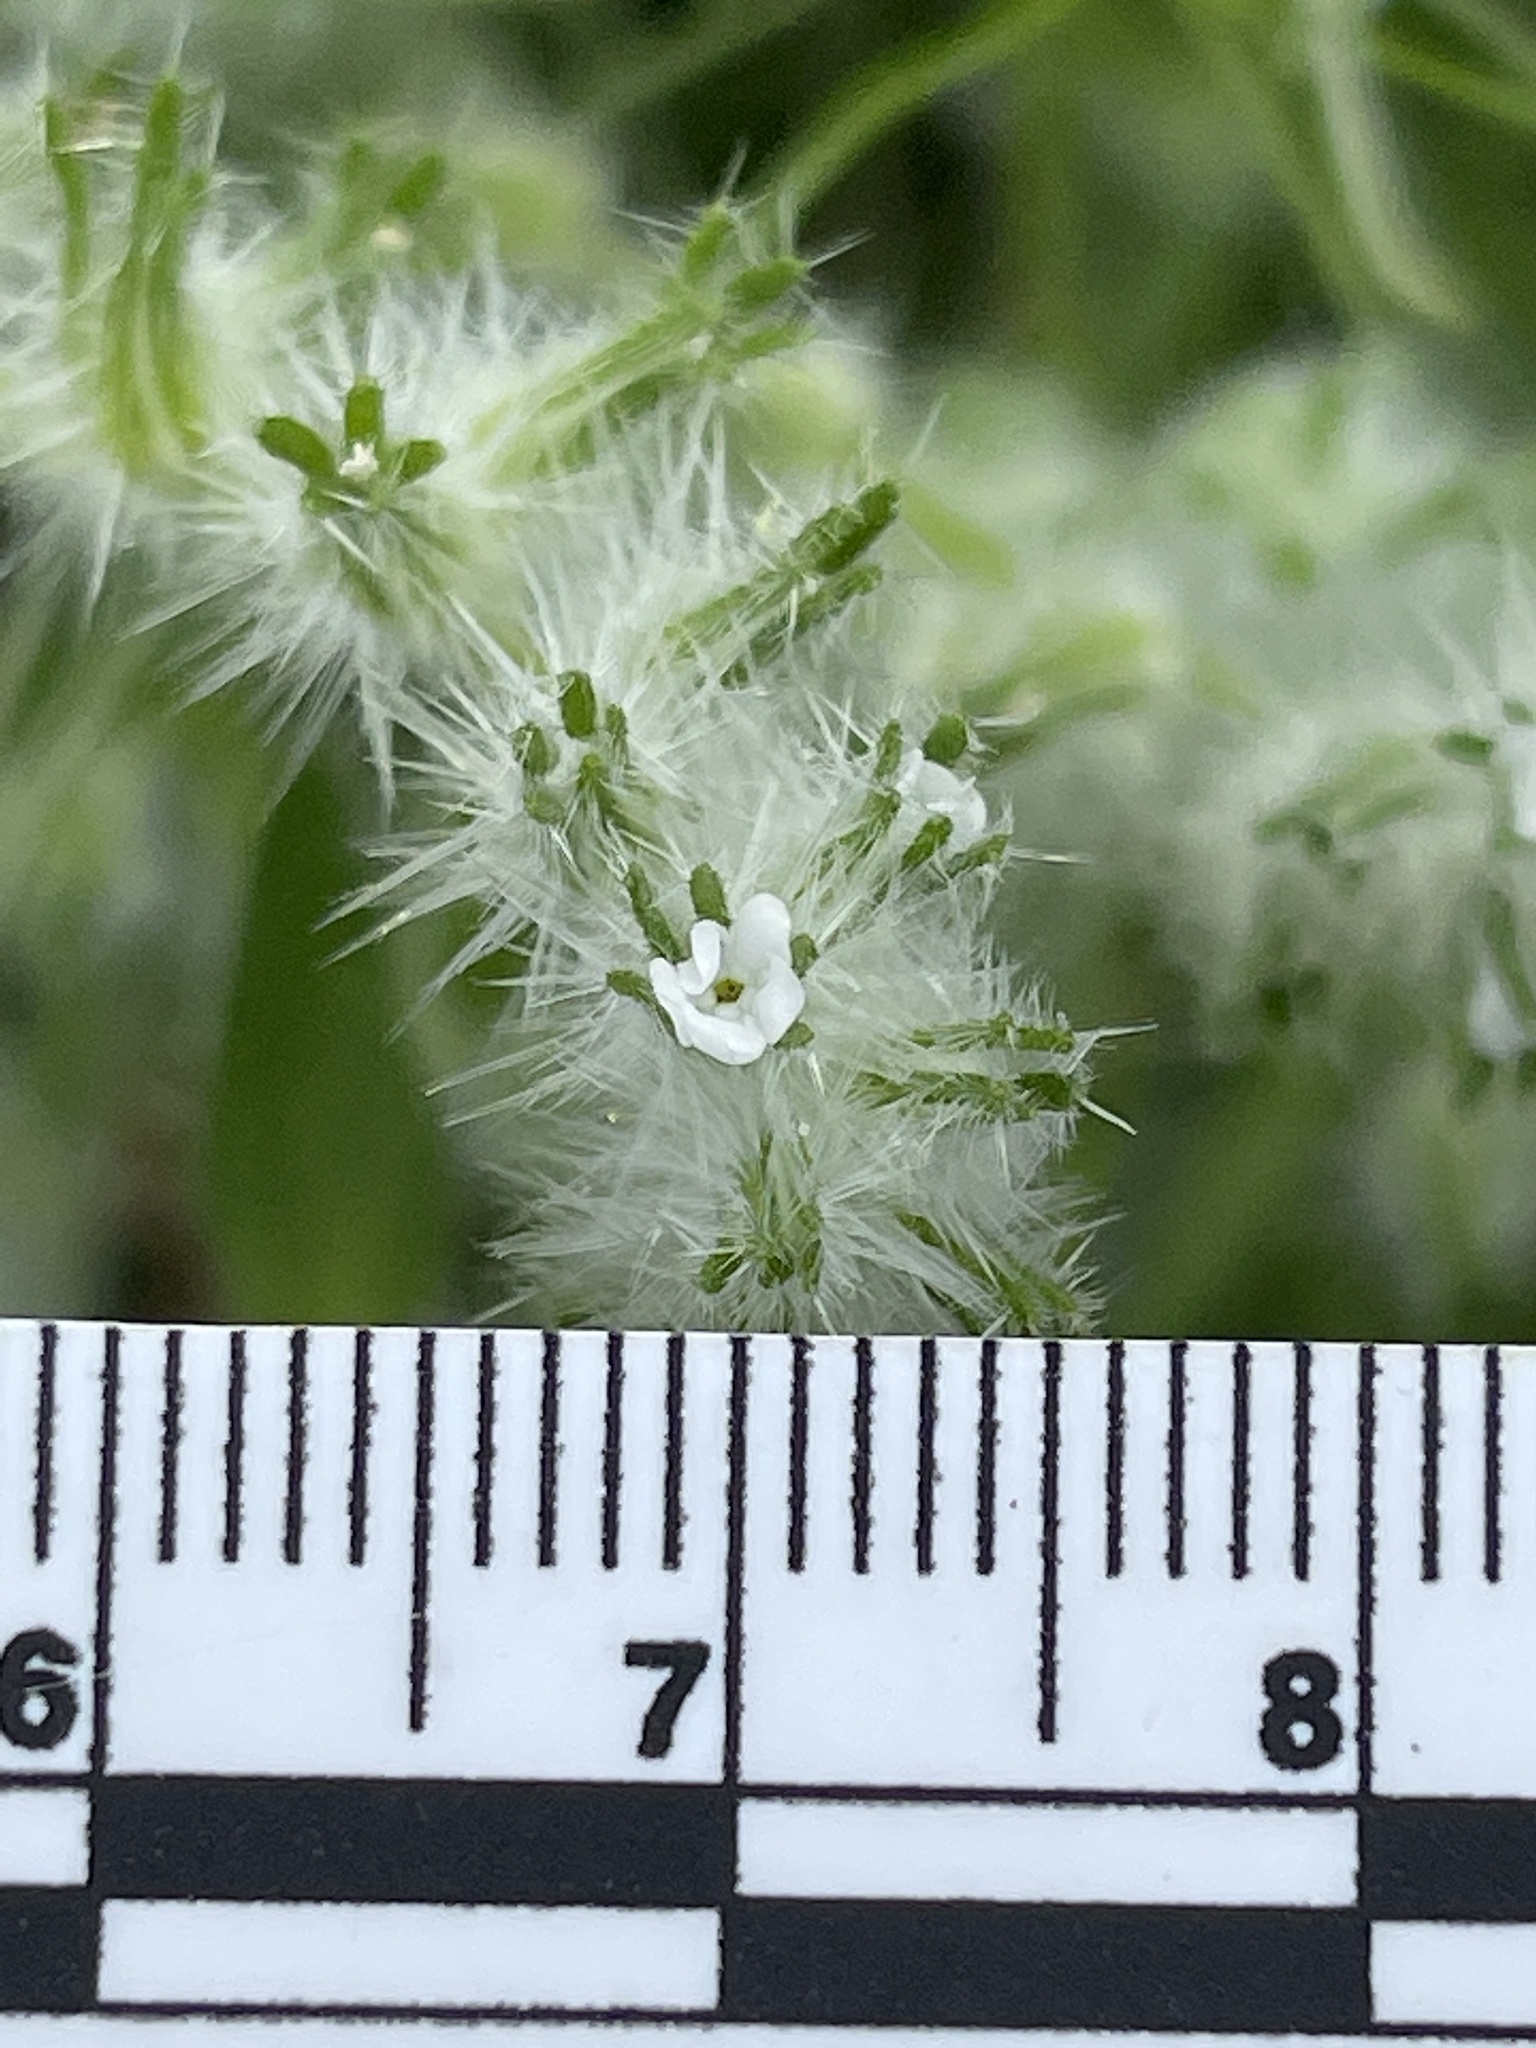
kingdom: Plantae
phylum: Tracheophyta
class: Magnoliopsida
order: Boraginales
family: Boraginaceae
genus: Cryptantha
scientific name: Cryptantha barbigera
